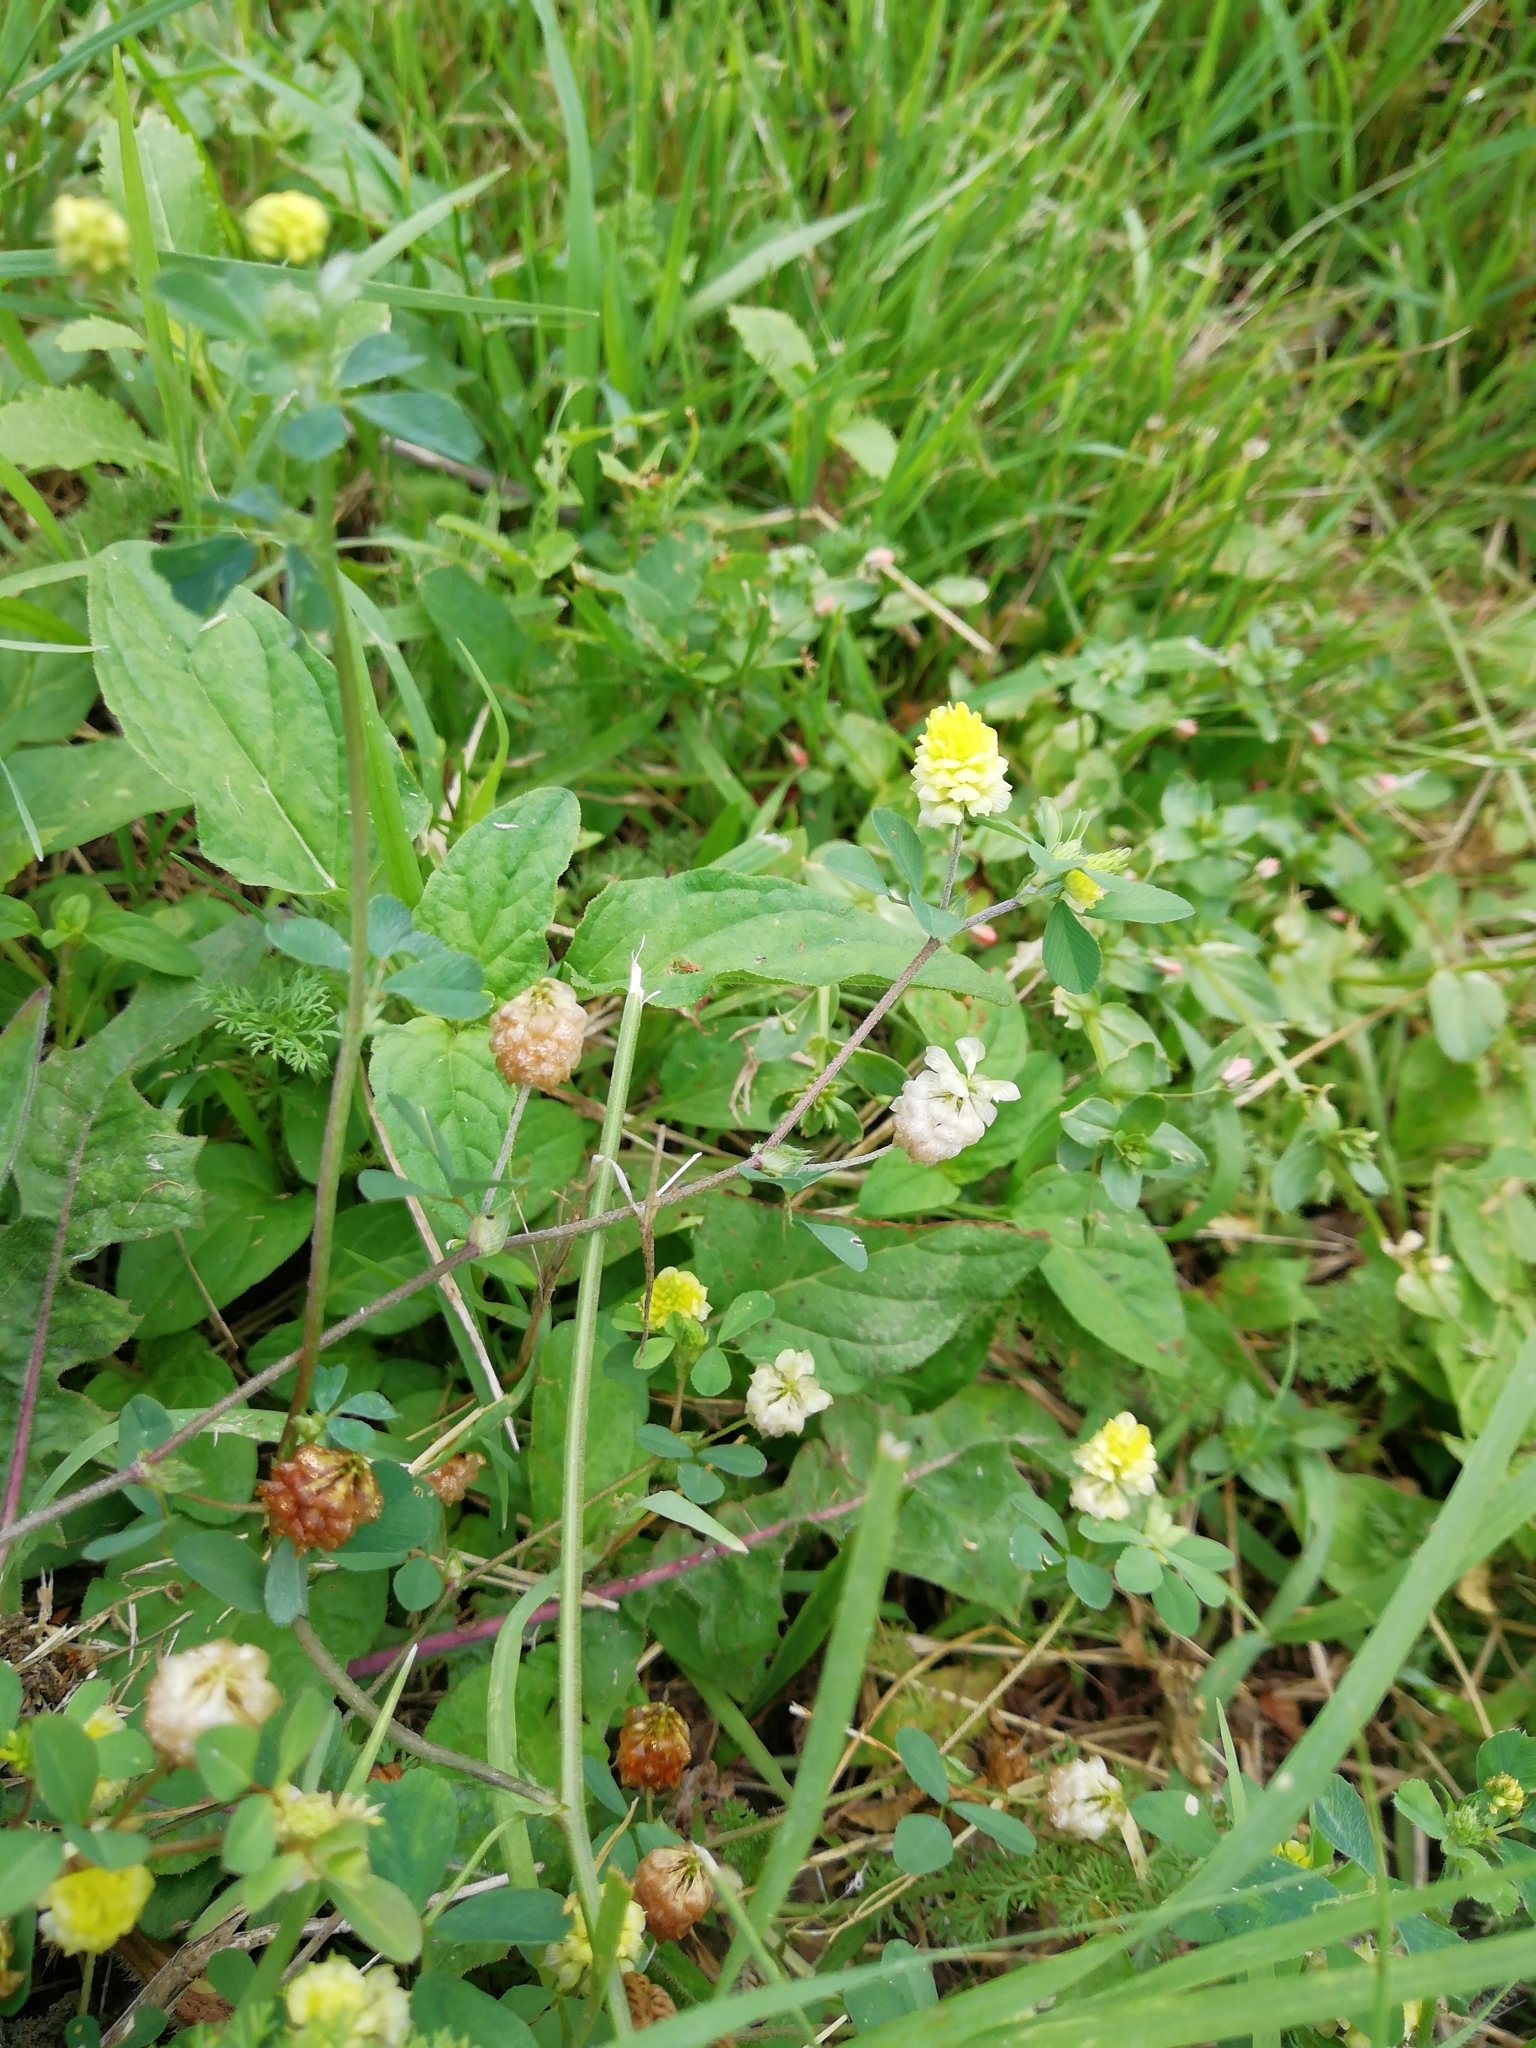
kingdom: Plantae
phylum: Tracheophyta
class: Magnoliopsida
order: Fabales
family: Fabaceae
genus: Trifolium
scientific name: Trifolium campestre
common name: Field clover
